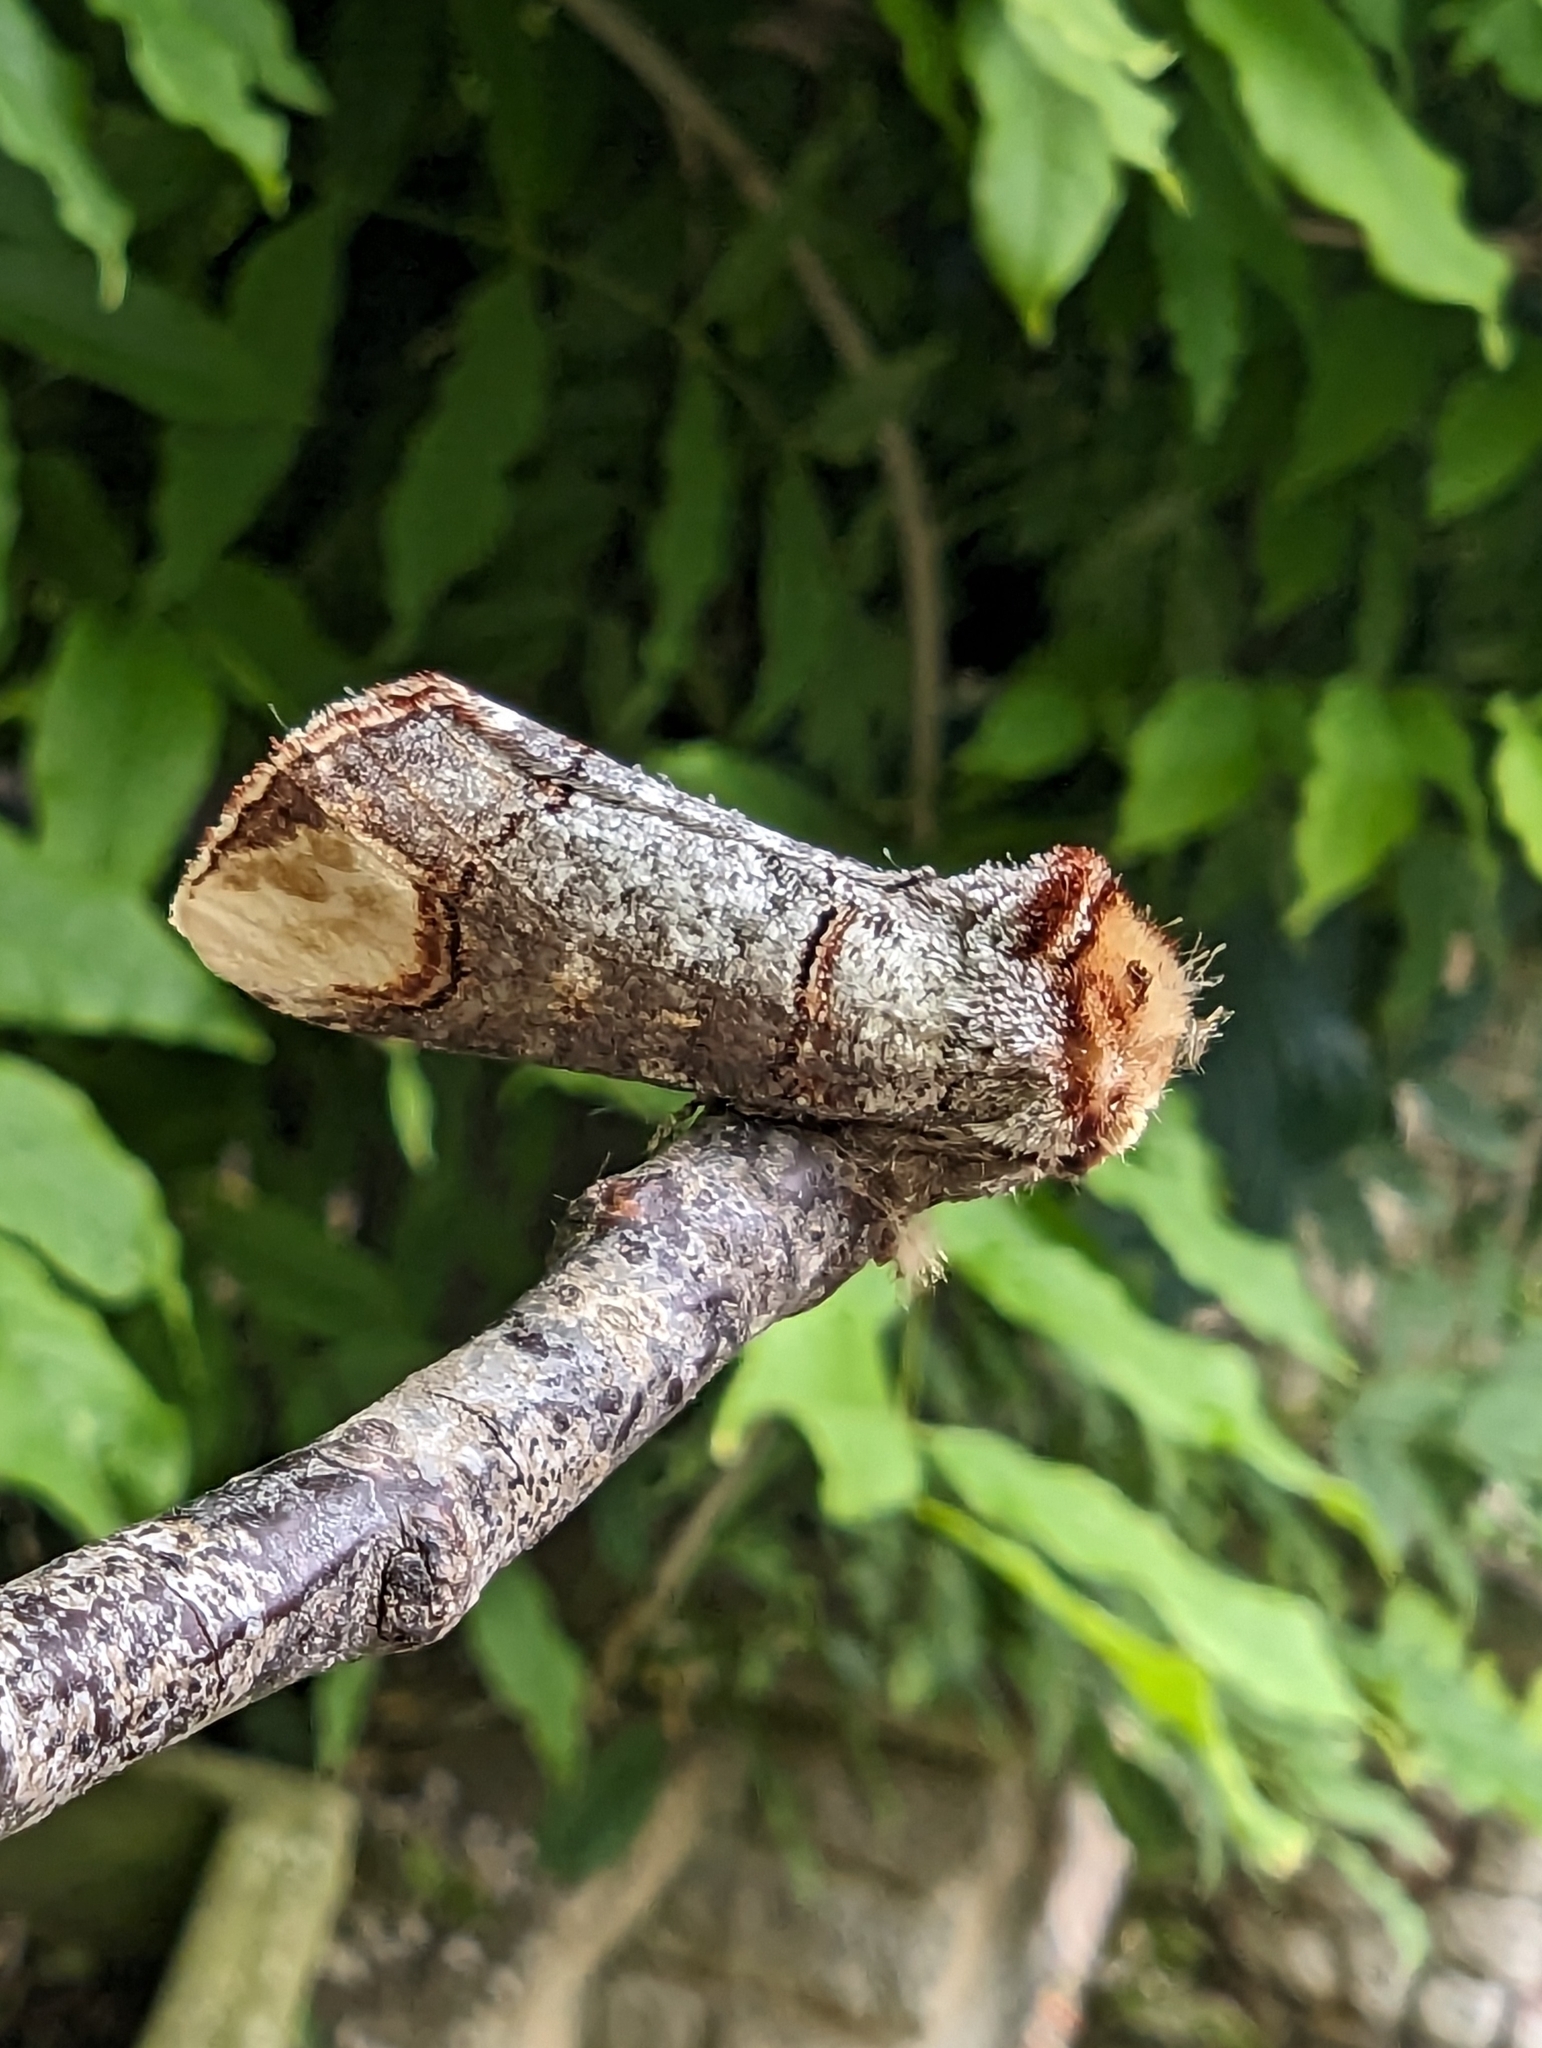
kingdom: Animalia
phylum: Arthropoda
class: Insecta
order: Lepidoptera
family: Notodontidae
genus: Phalera
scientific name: Phalera bucephala
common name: Buff-tip
